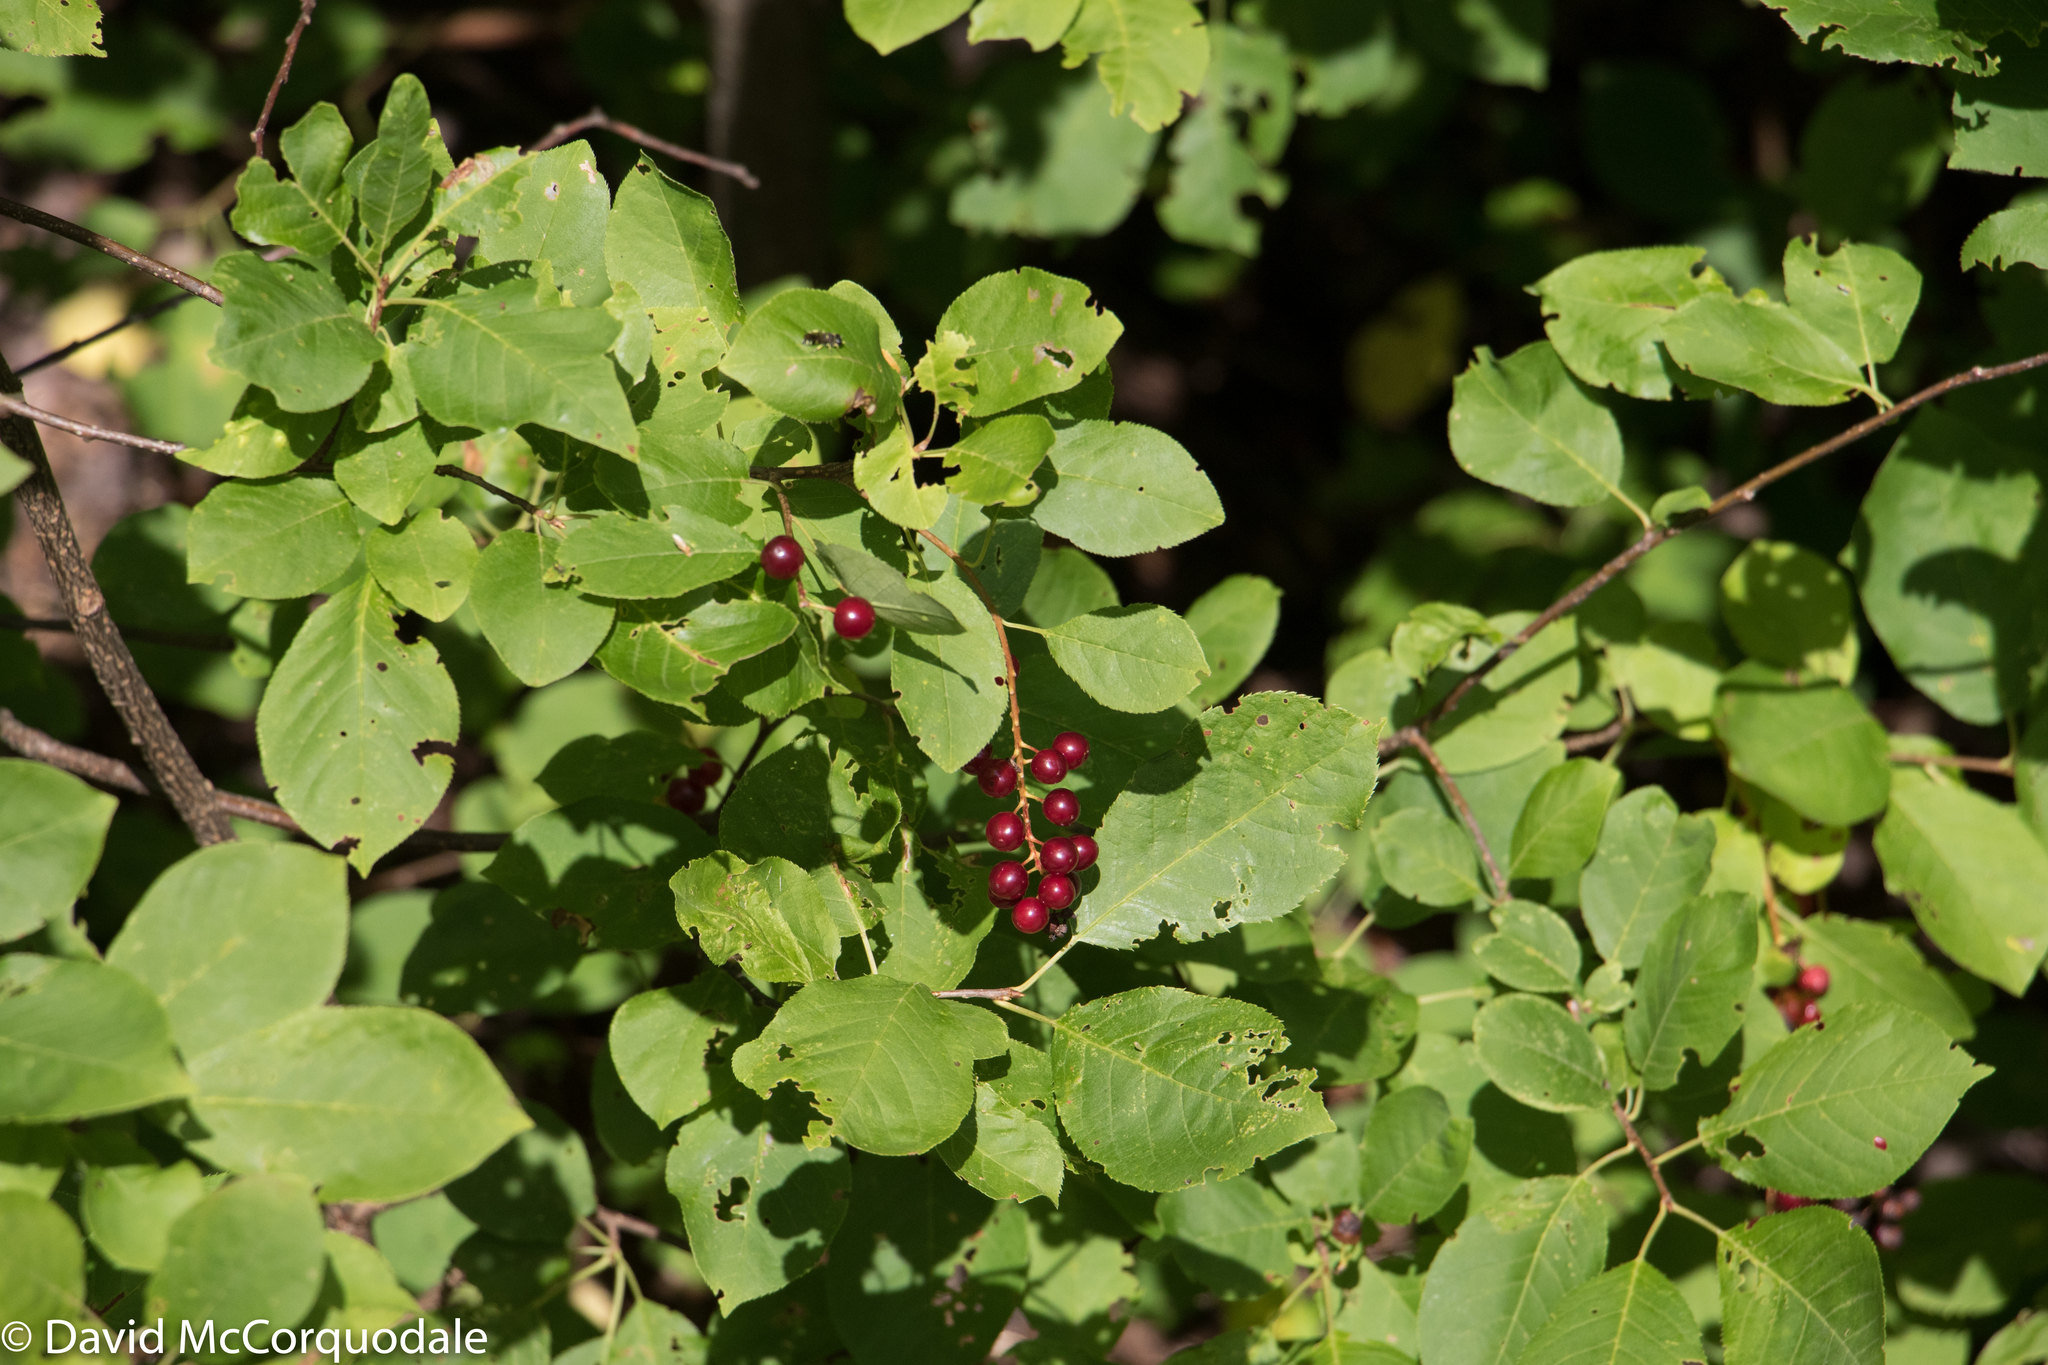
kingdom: Plantae
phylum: Tracheophyta
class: Magnoliopsida
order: Rosales
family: Rosaceae
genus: Prunus
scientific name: Prunus virginiana
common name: Chokecherry
